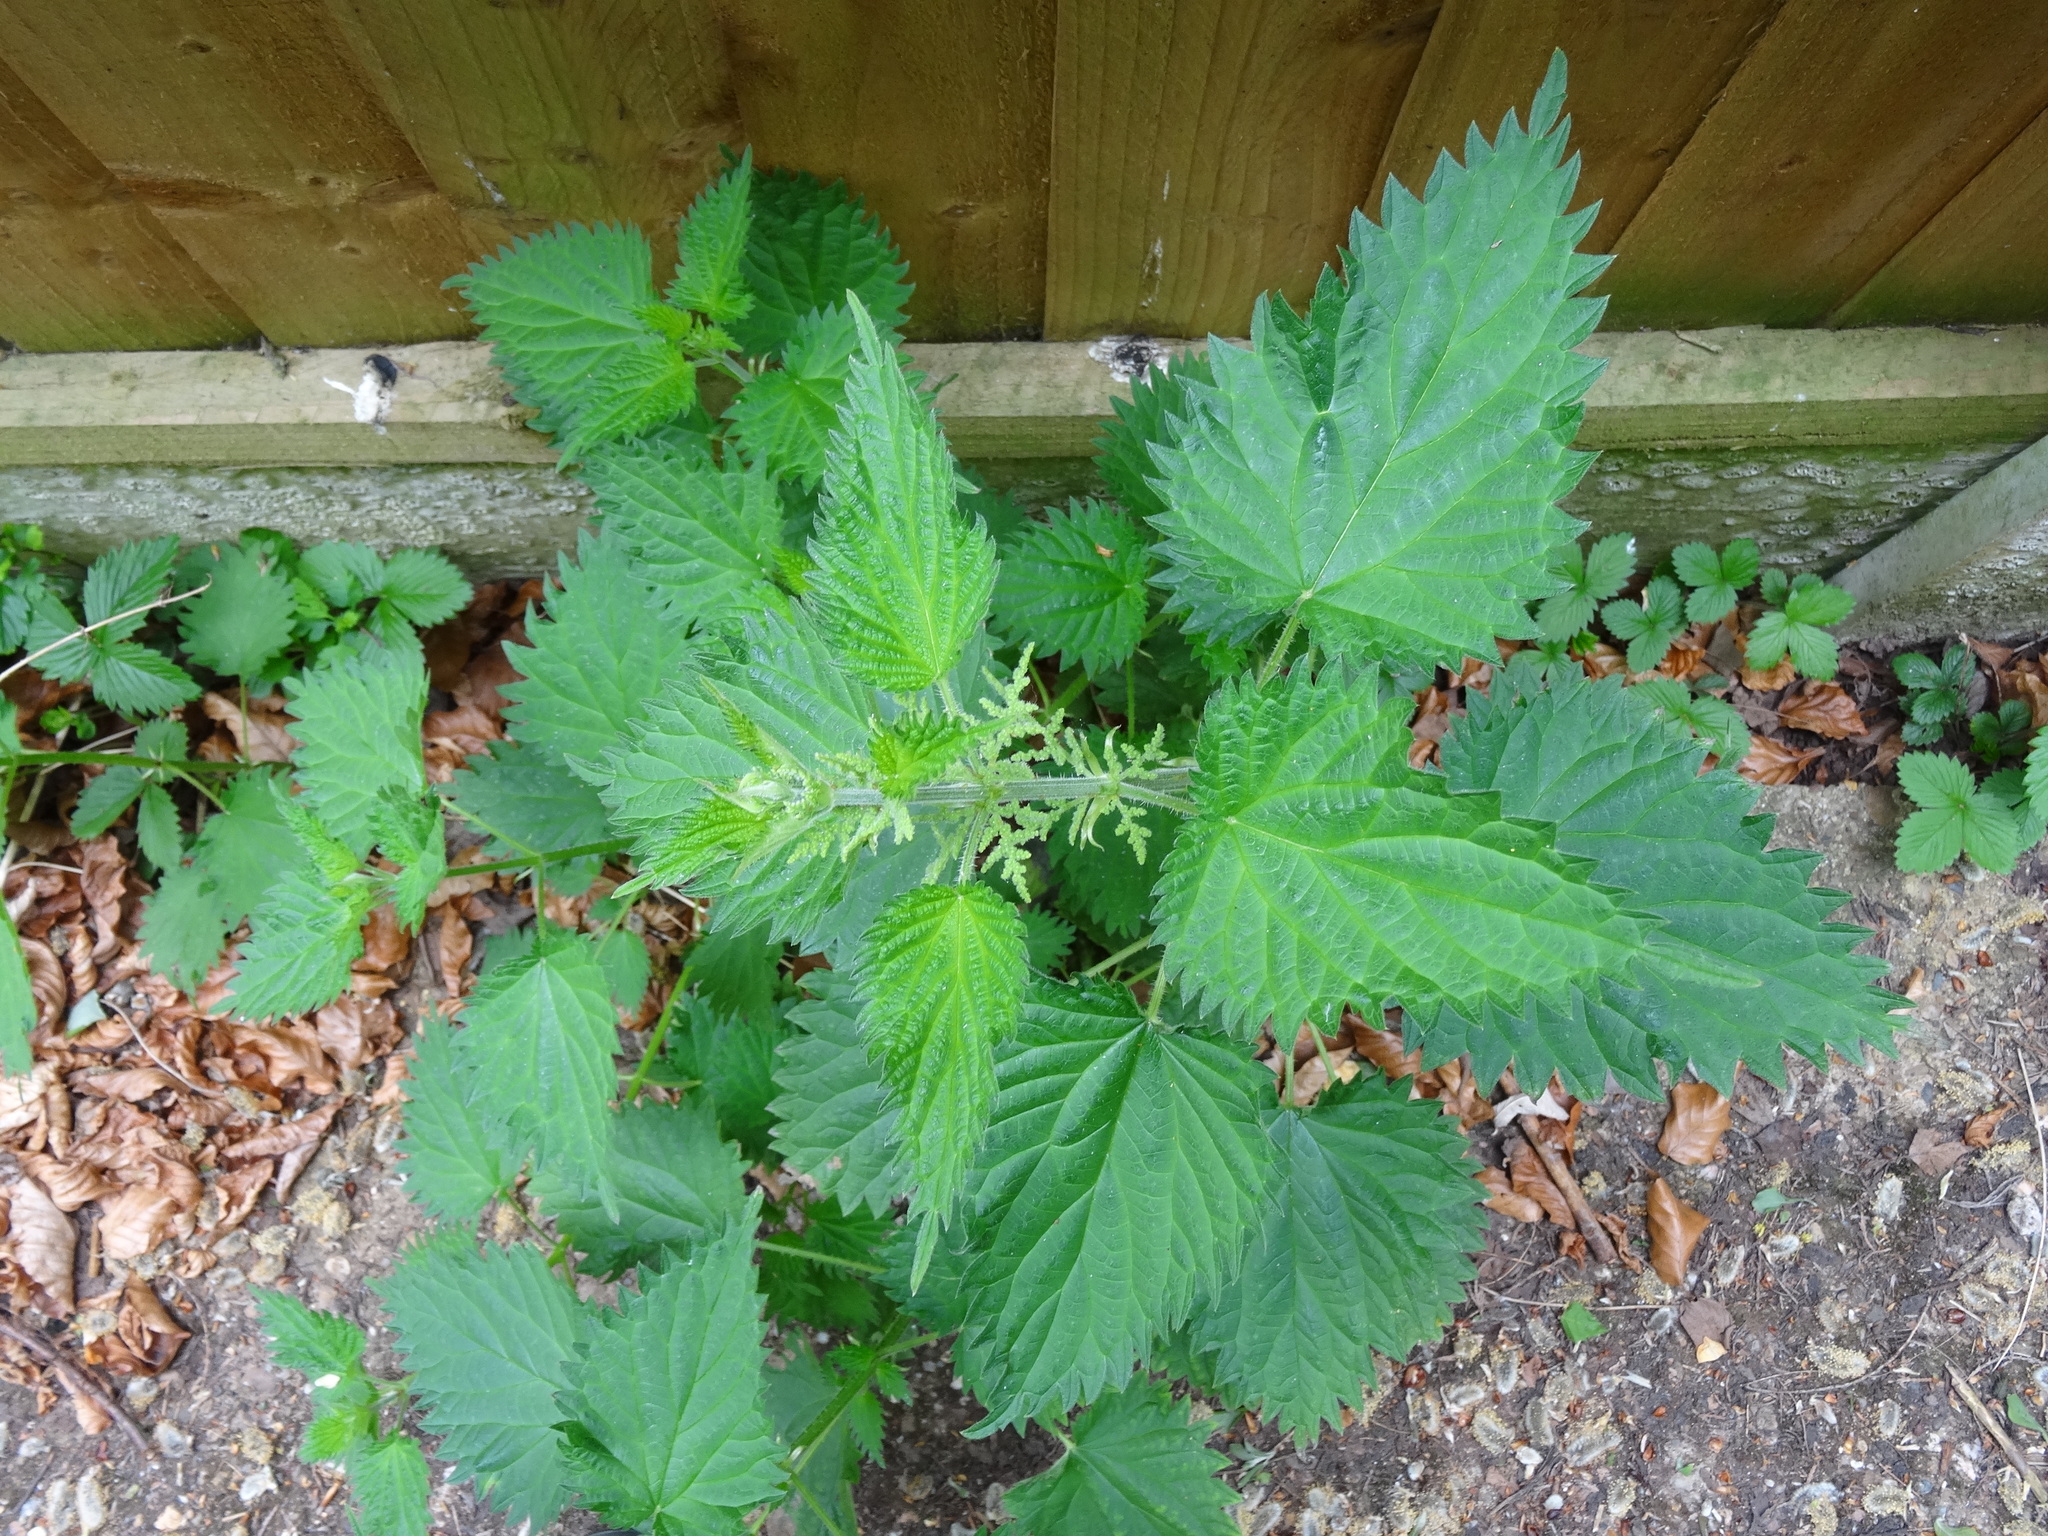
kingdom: Plantae
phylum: Tracheophyta
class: Magnoliopsida
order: Rosales
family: Urticaceae
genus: Urtica
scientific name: Urtica dioica
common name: Common nettle
